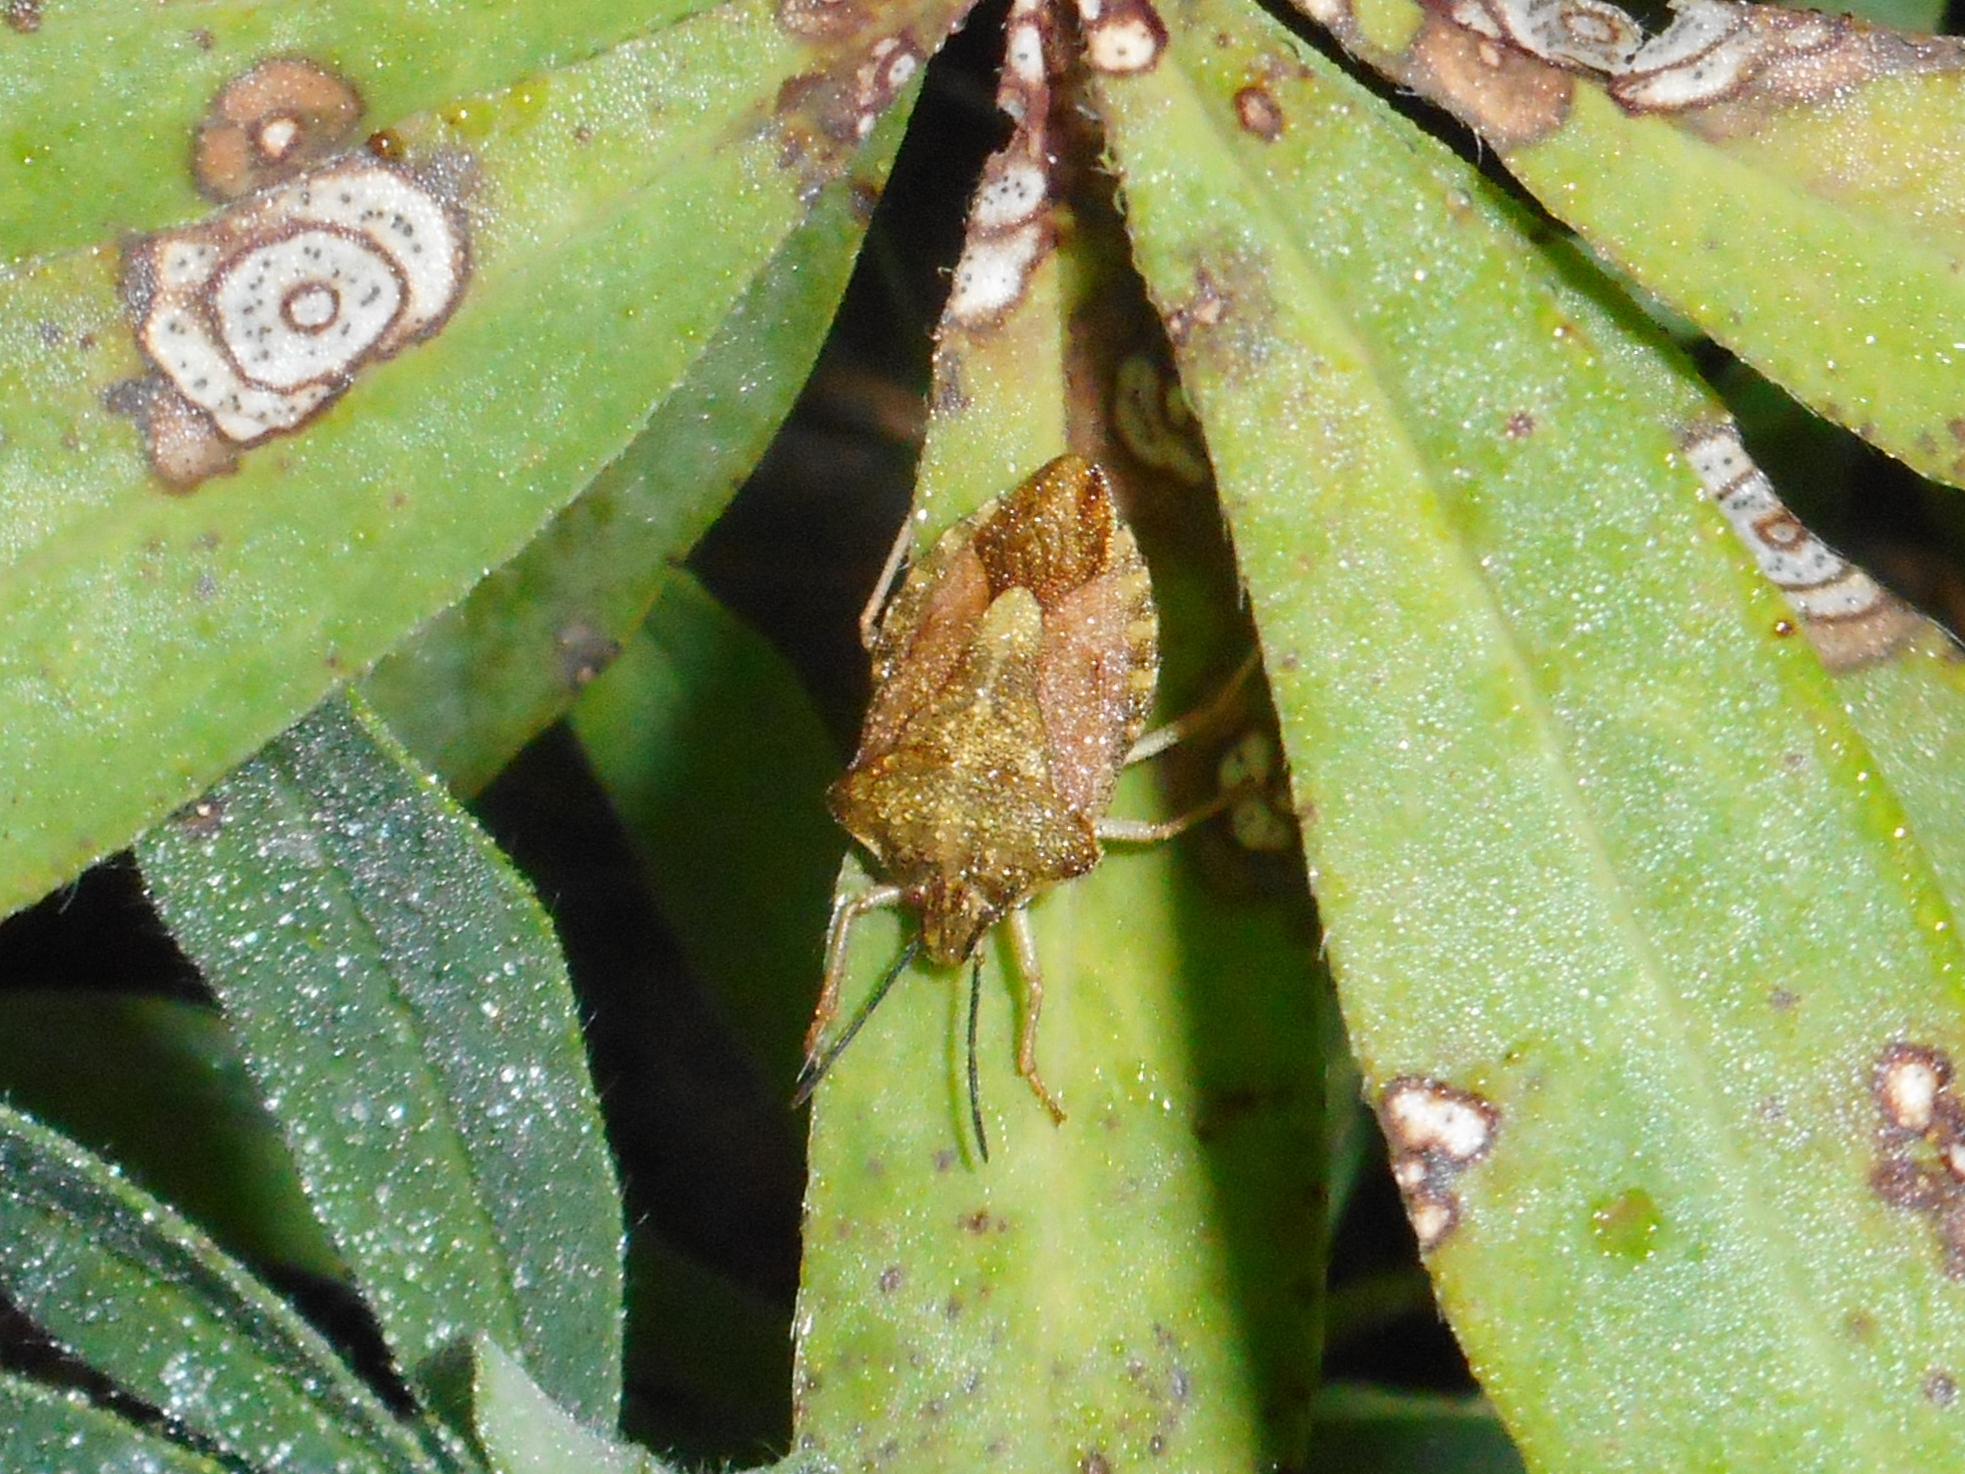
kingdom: Animalia
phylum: Arthropoda
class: Insecta
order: Hemiptera
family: Pentatomidae
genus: Carpocoris
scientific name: Carpocoris purpureipennis
